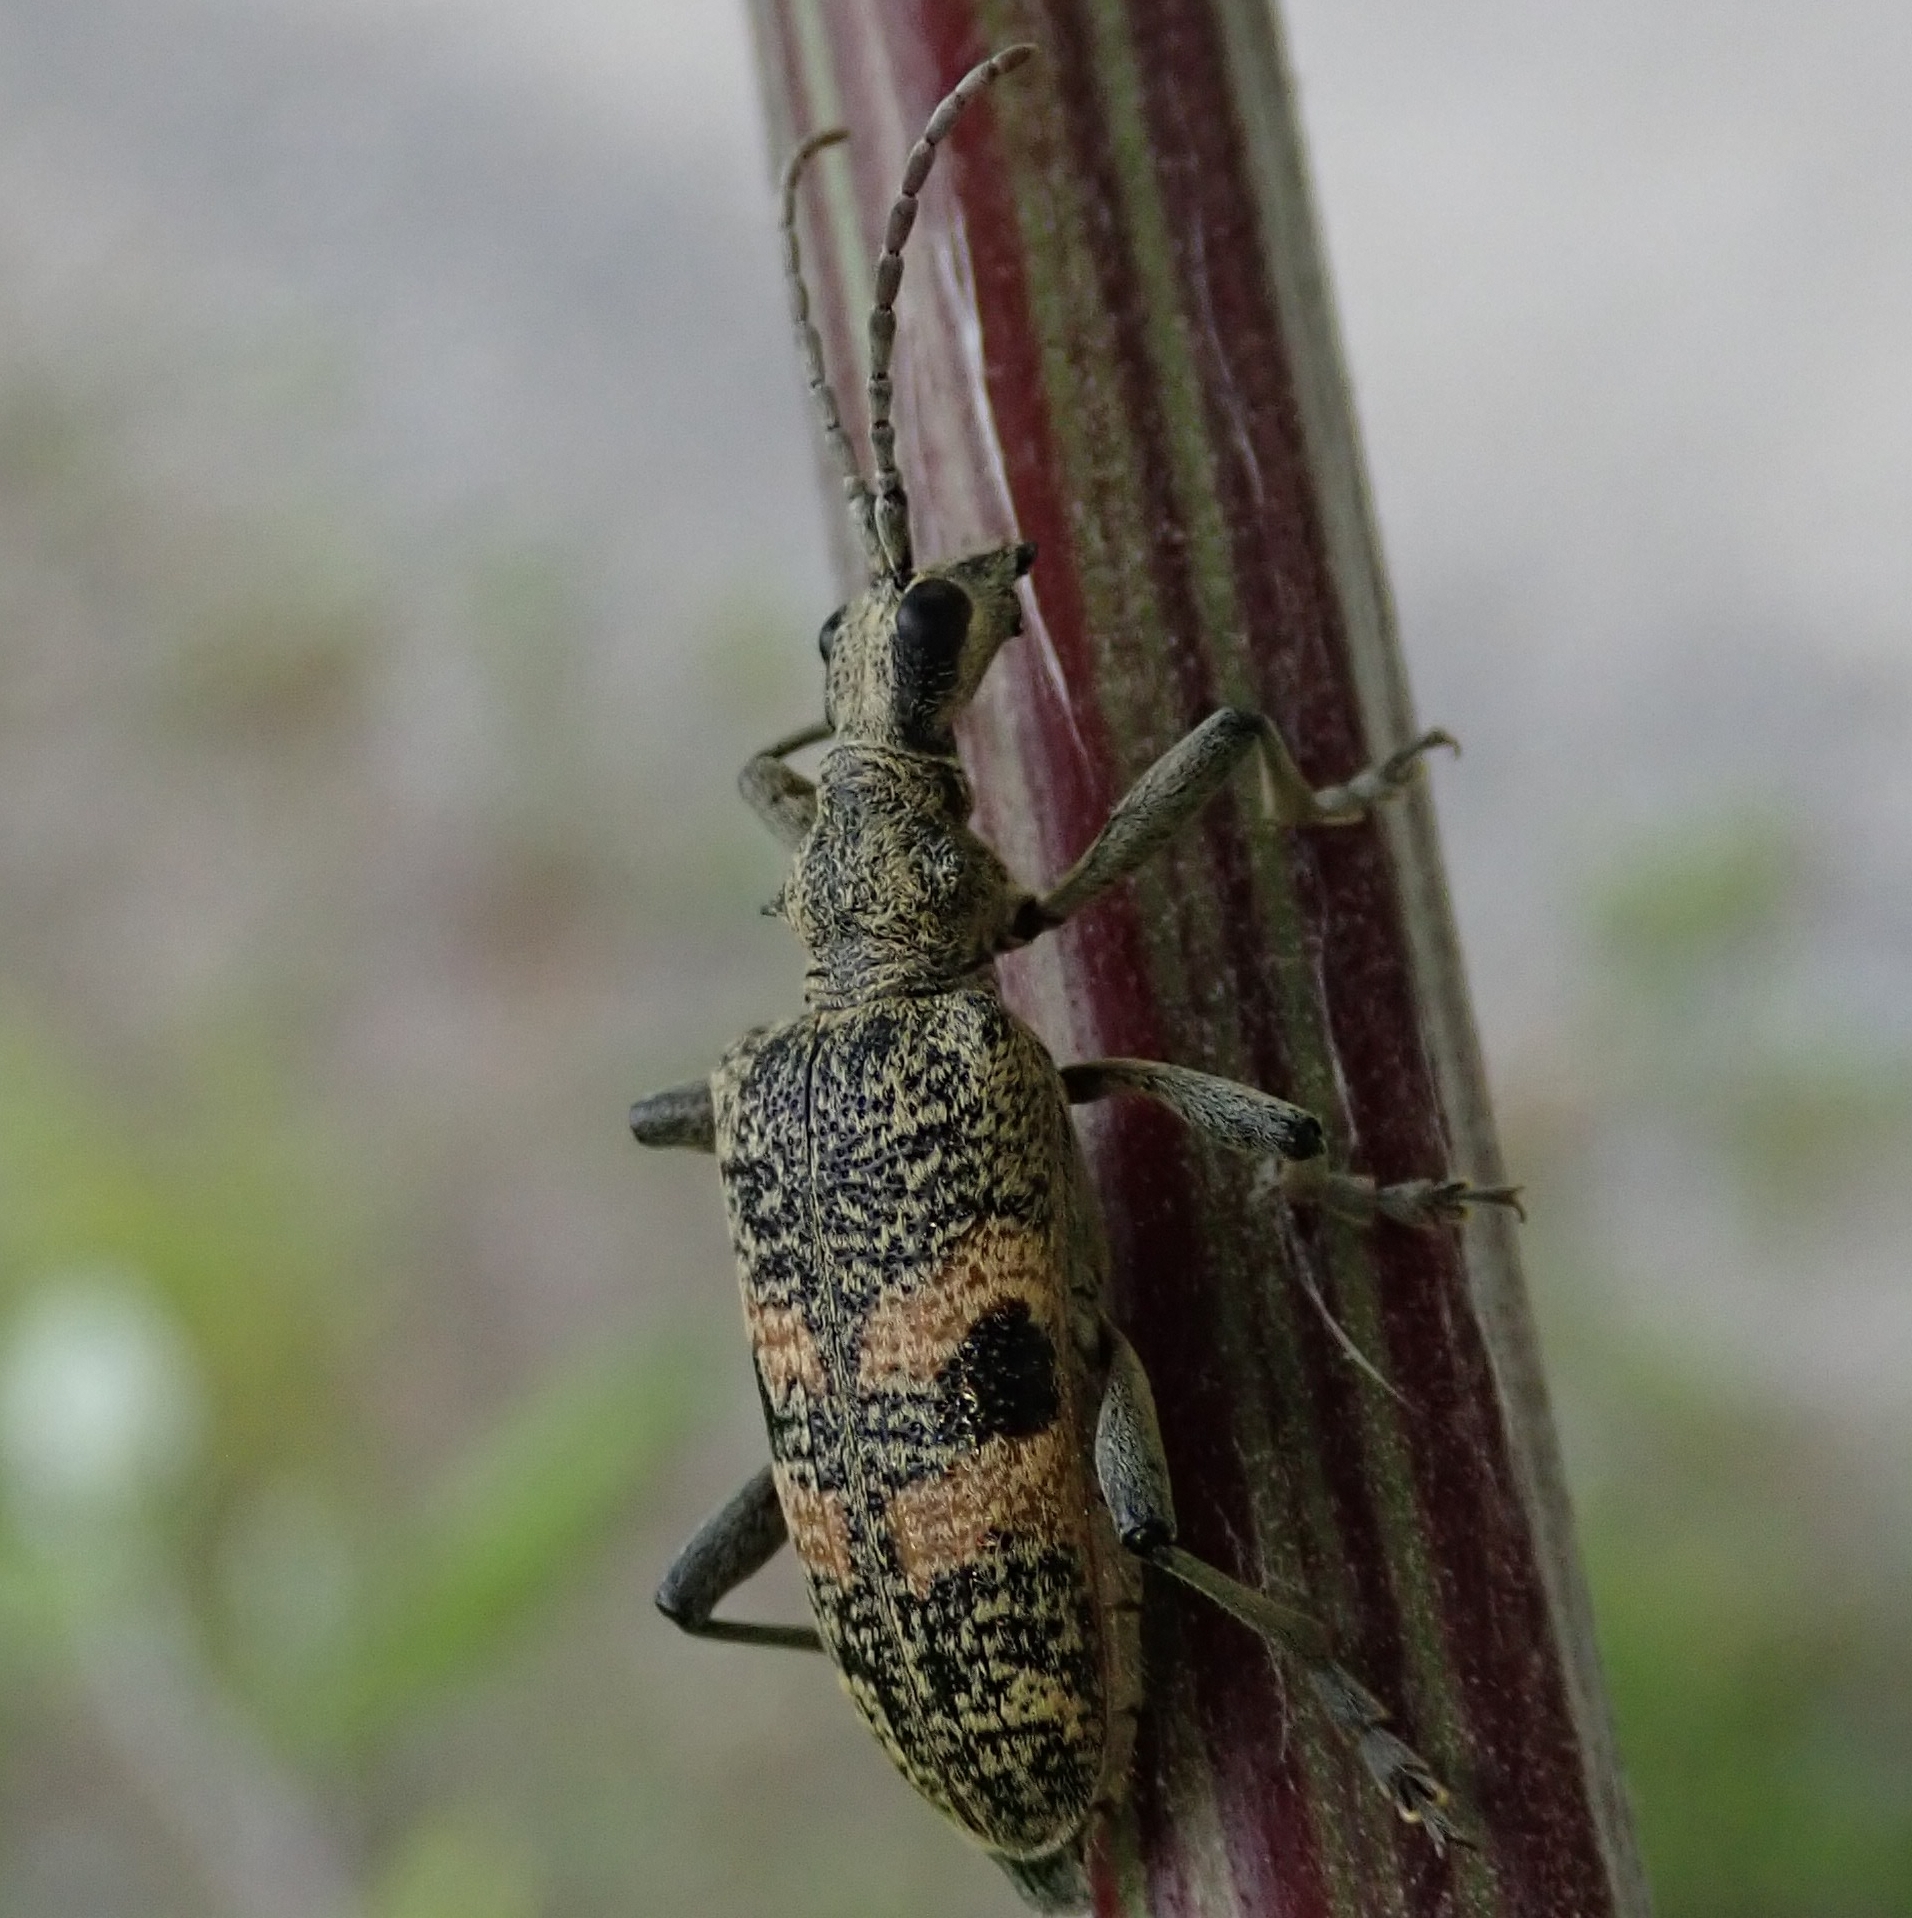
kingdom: Animalia
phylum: Arthropoda
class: Insecta
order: Coleoptera
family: Cerambycidae
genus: Rhagium
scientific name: Rhagium mordax
